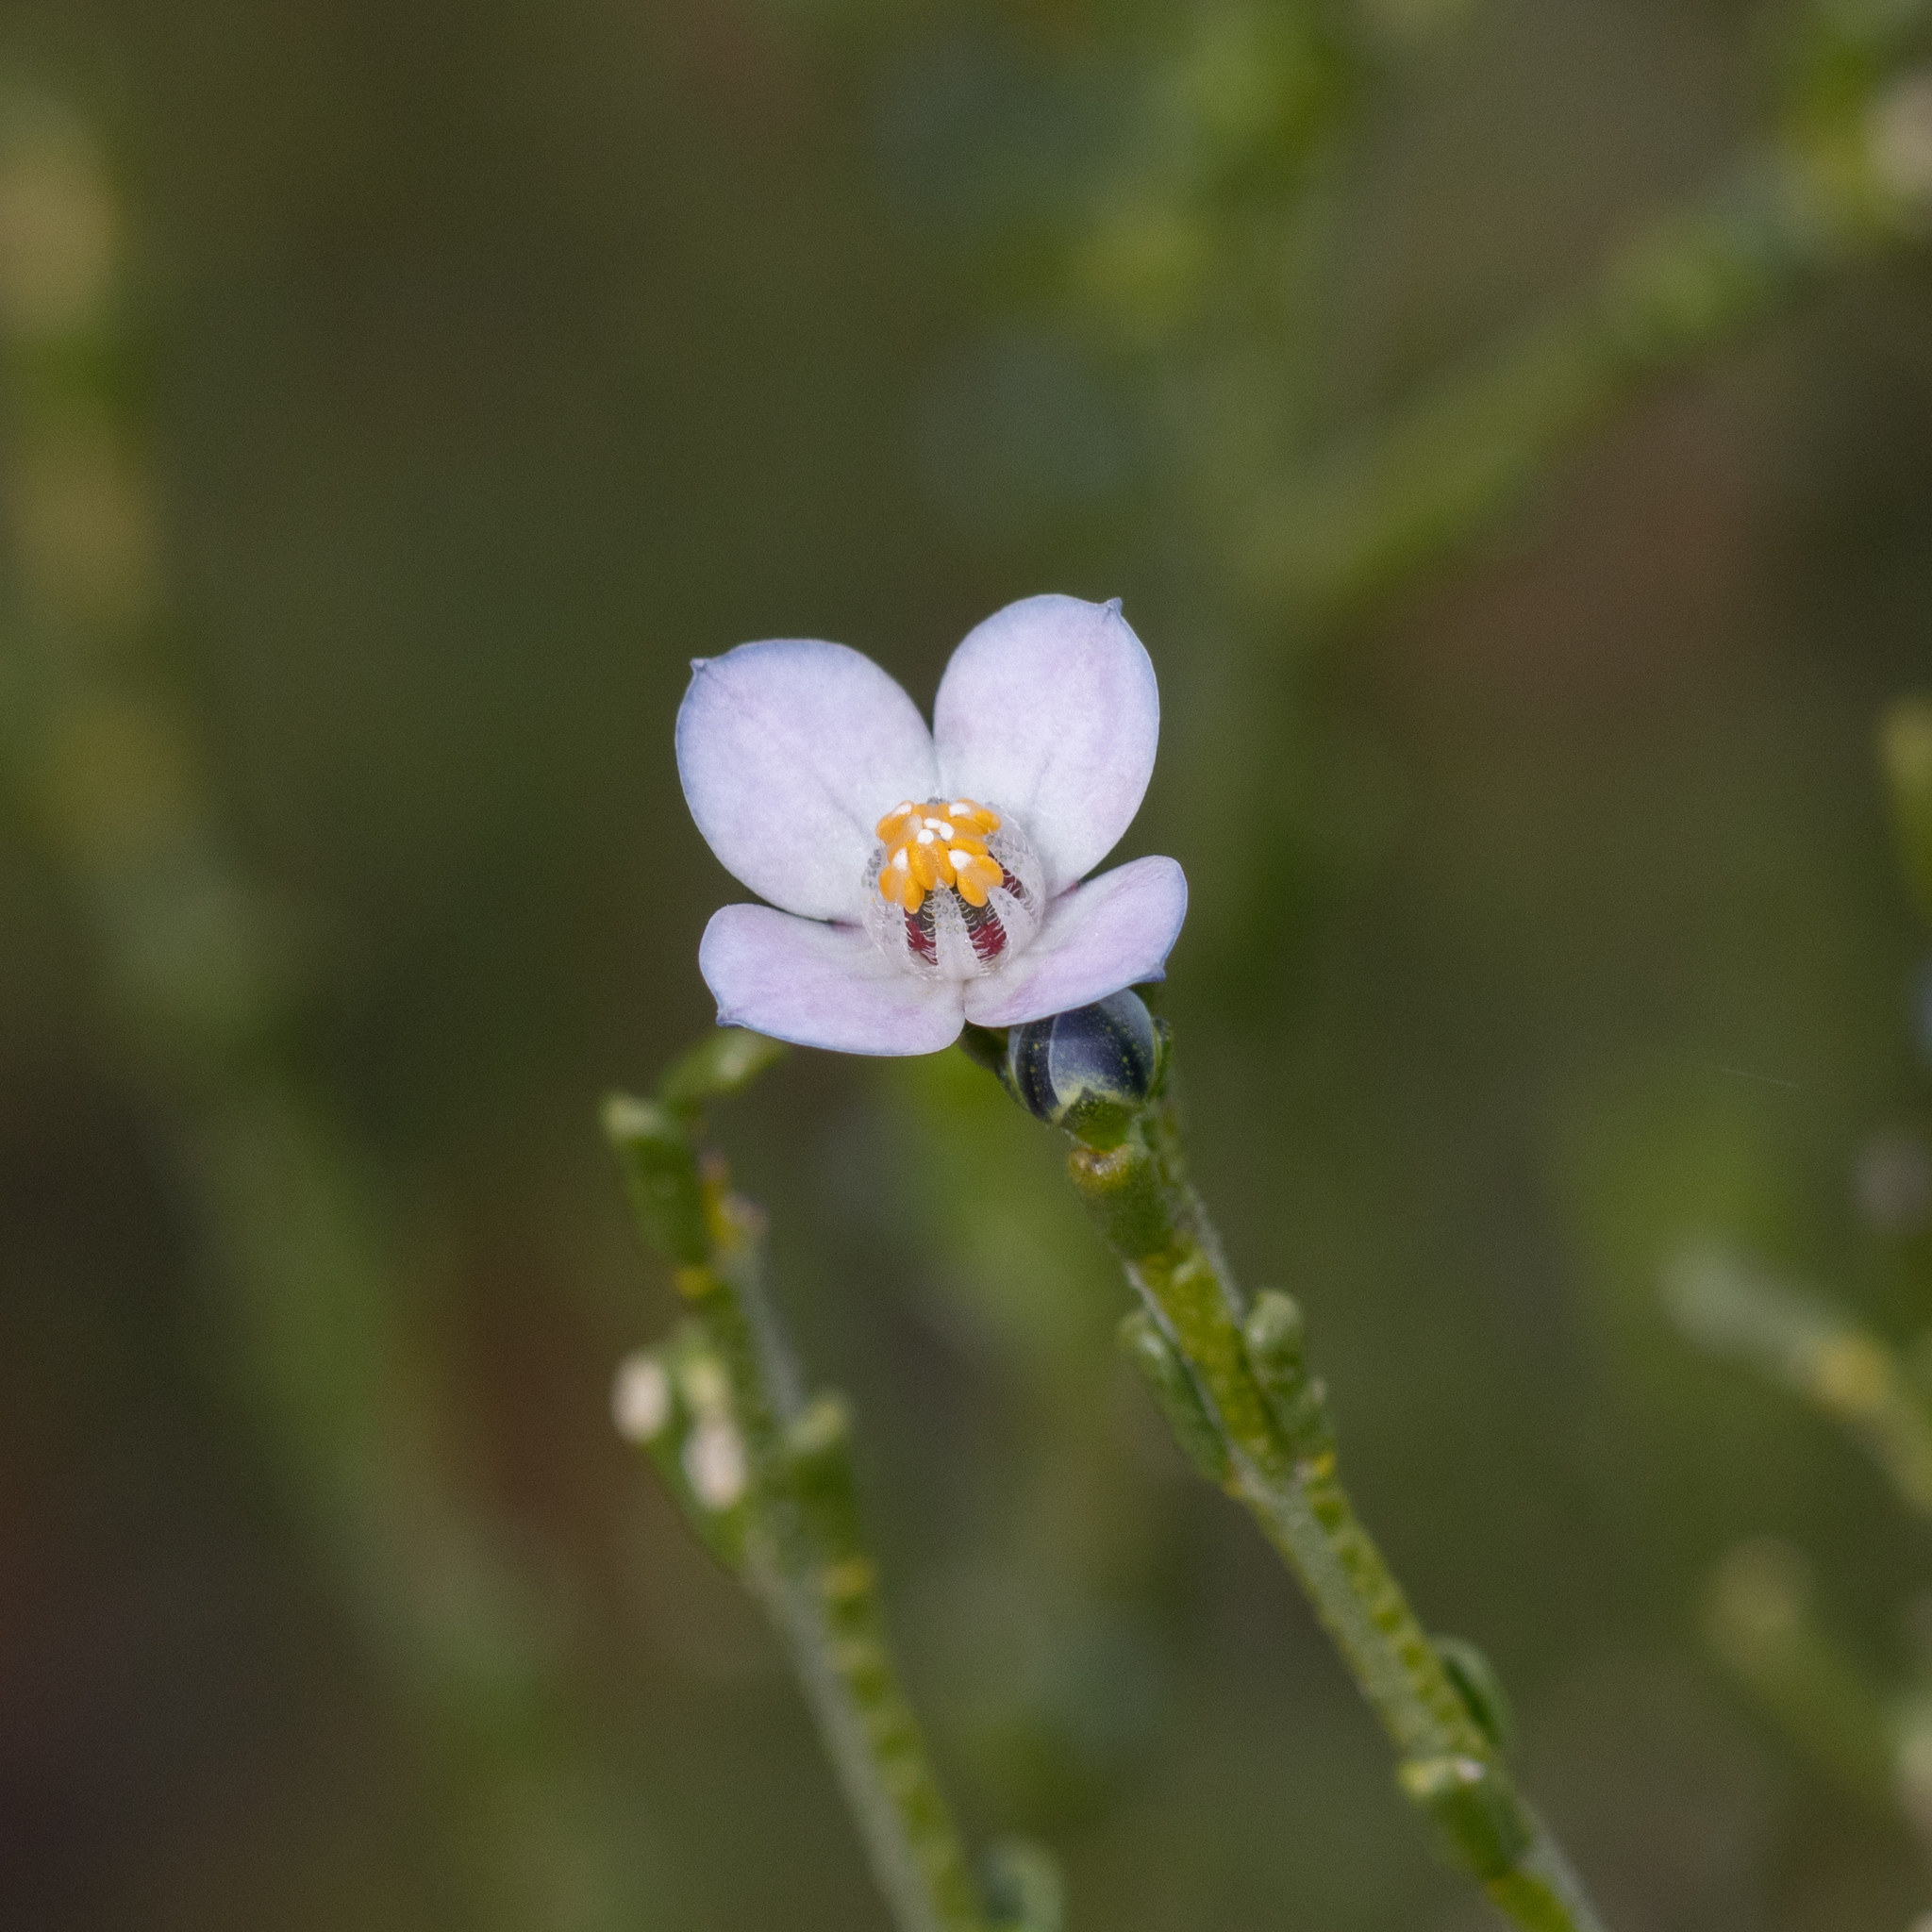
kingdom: Plantae
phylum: Tracheophyta
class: Magnoliopsida
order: Sapindales
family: Rutaceae
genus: Cyanothamnus
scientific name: Cyanothamnus coerulescens
